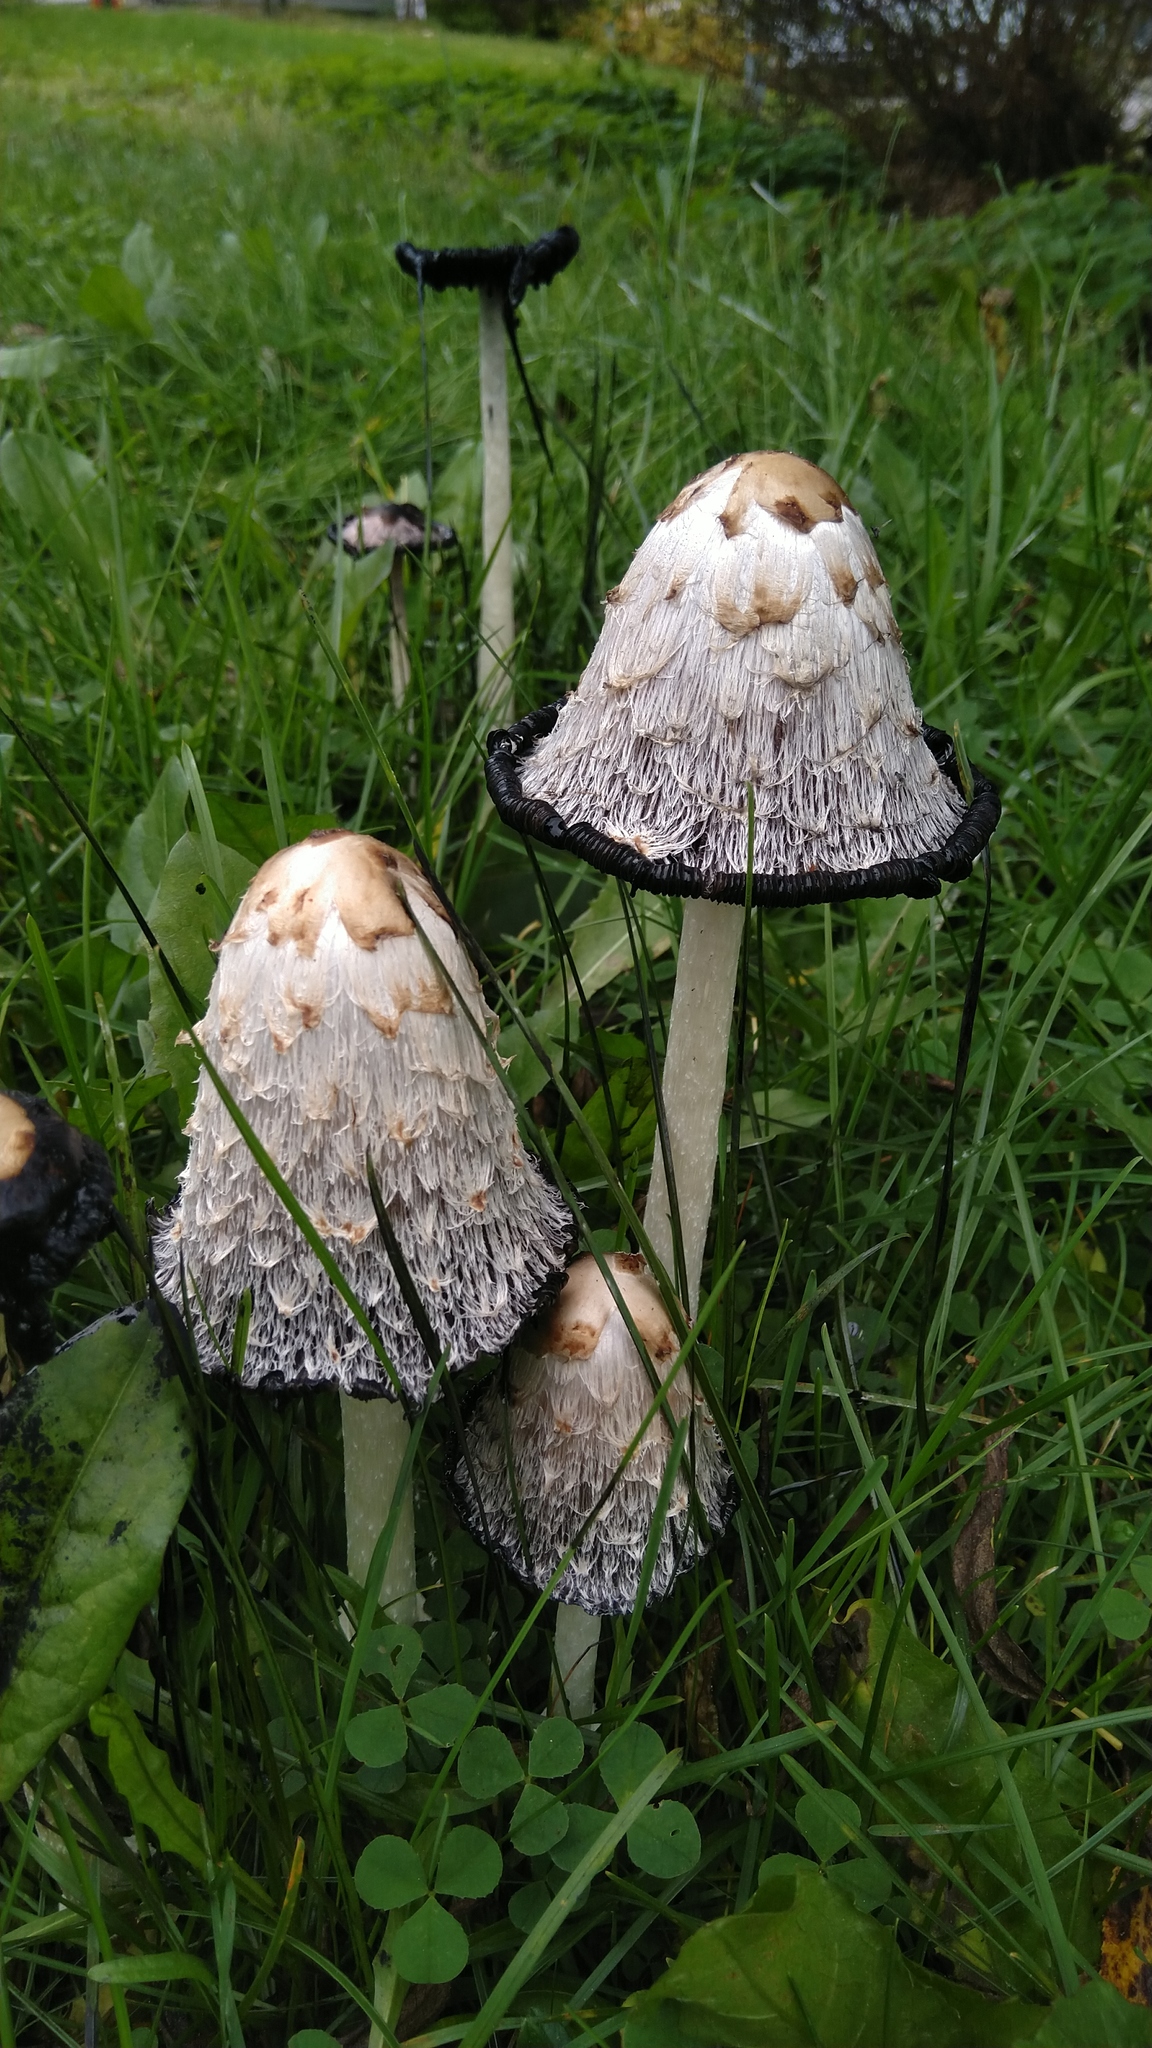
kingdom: Fungi
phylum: Basidiomycota
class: Agaricomycetes
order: Agaricales
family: Agaricaceae
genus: Coprinus
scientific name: Coprinus comatus
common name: Lawyer's wig
